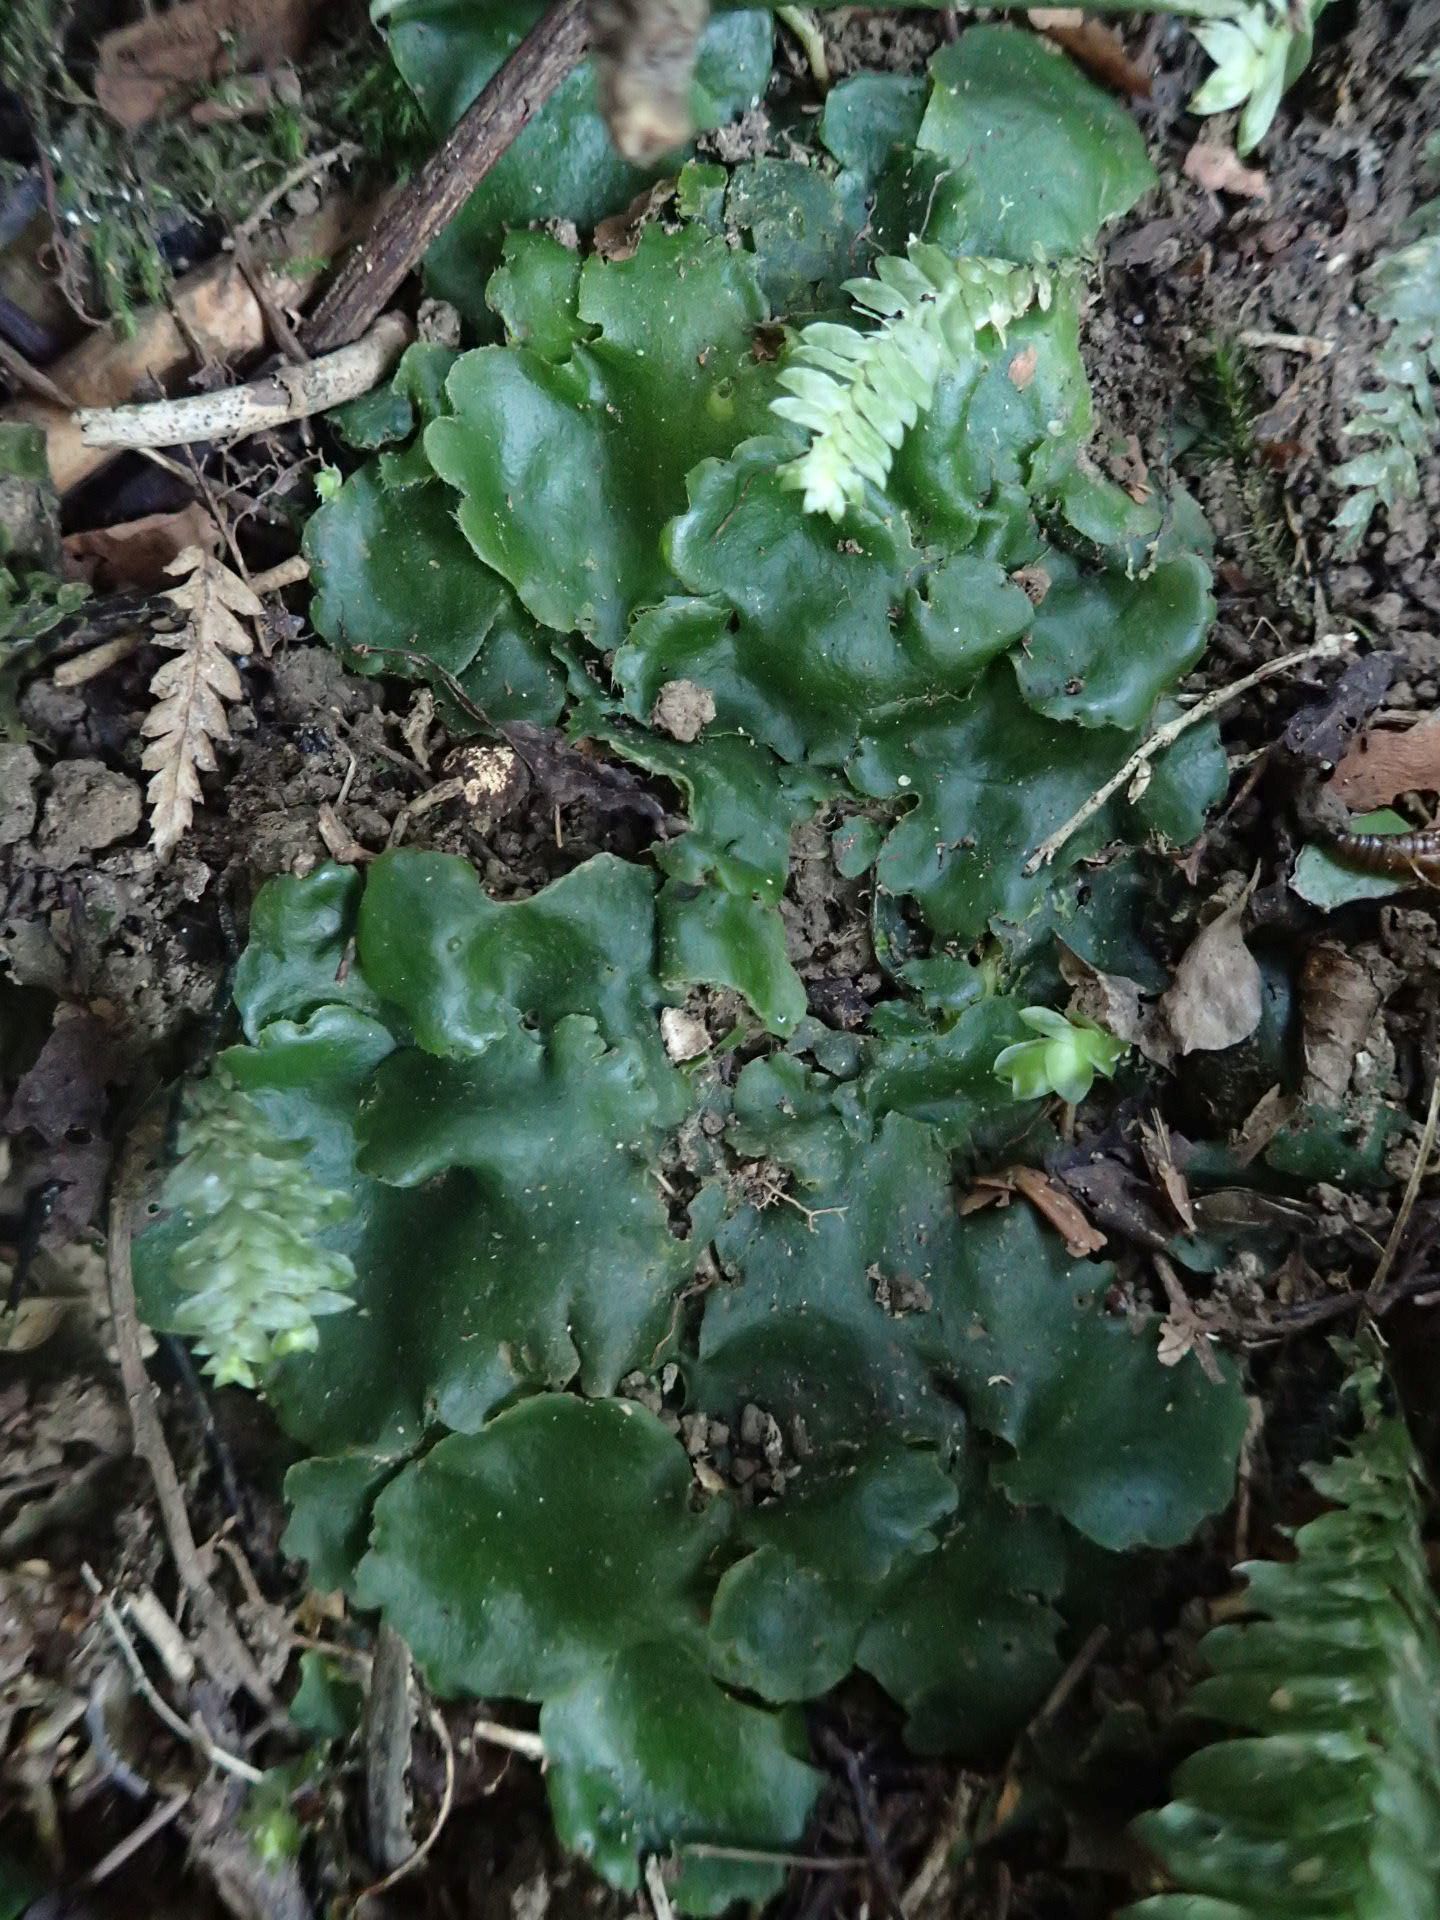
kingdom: Plantae
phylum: Marchantiophyta
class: Marchantiopsida
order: Marchantiales
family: Monocleaceae
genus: Monoclea
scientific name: Monoclea forsteri
